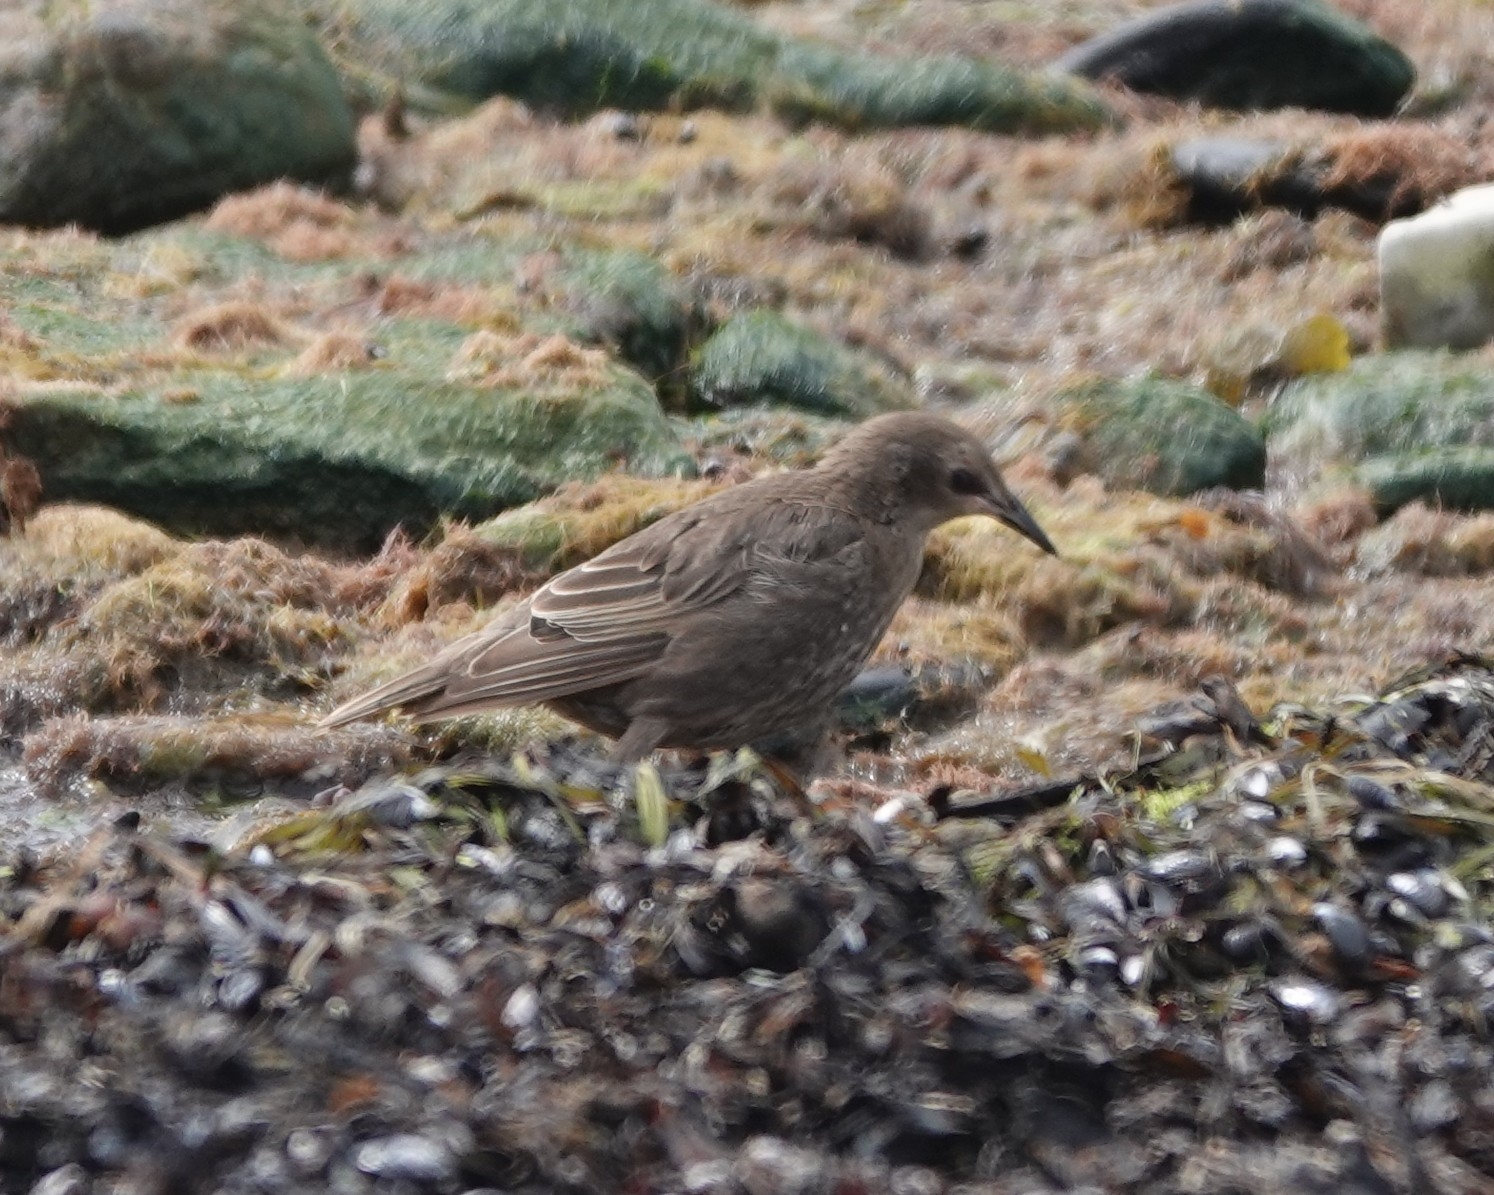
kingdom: Animalia
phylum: Chordata
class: Aves
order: Passeriformes
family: Sturnidae
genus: Sturnus
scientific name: Sturnus vulgaris
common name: Common starling
